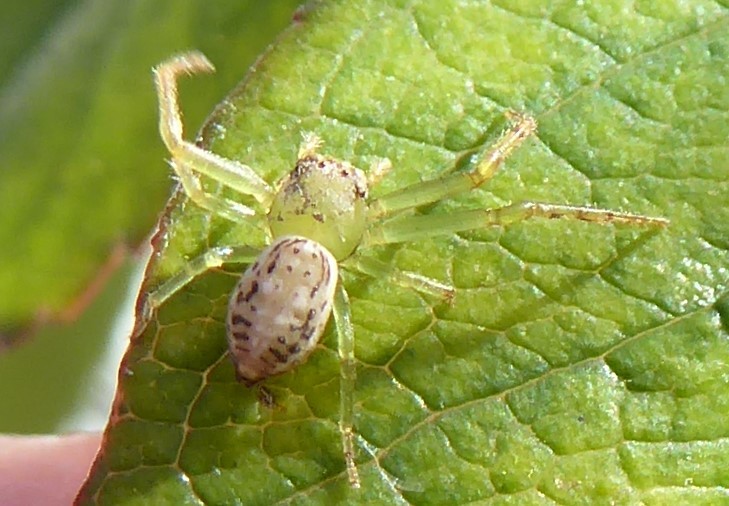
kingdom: Animalia
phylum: Arthropoda
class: Arachnida
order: Araneae
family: Thomisidae
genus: Diaea
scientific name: Diaea ambara
